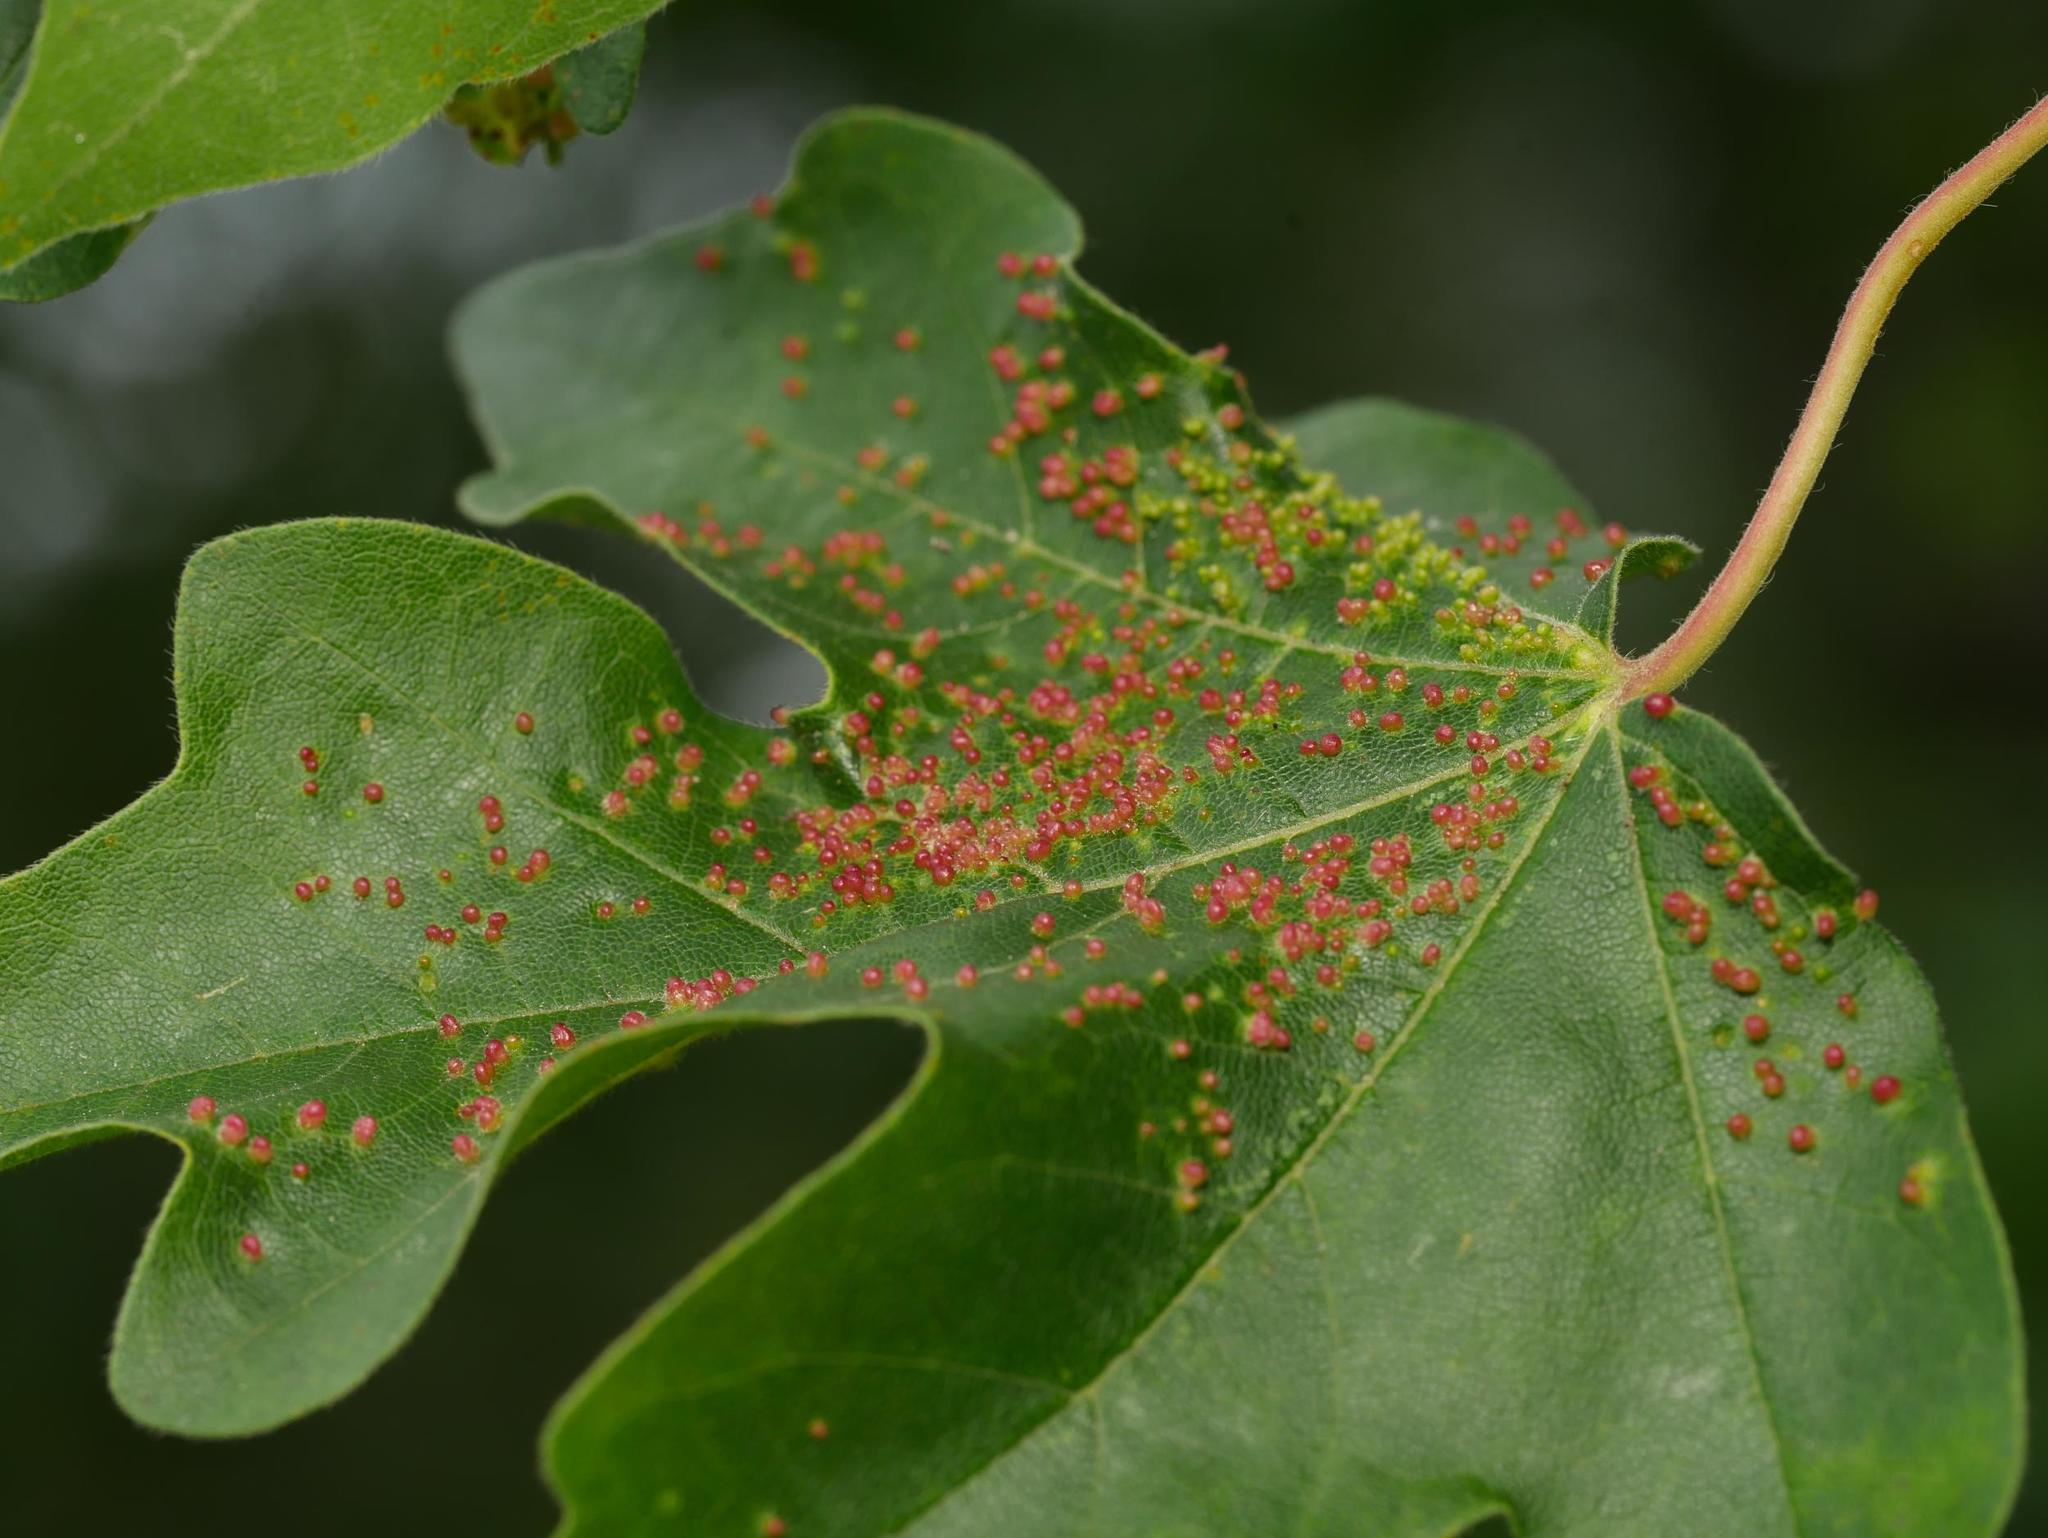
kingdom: Animalia
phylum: Arthropoda
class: Arachnida
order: Trombidiformes
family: Eriophyidae
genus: Aceria
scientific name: Aceria myriadeum
